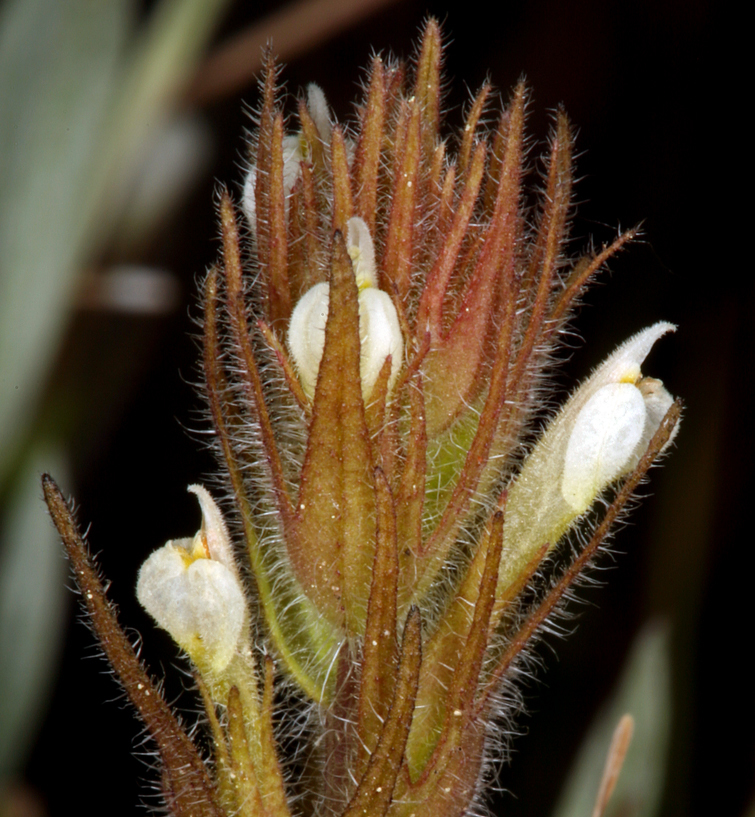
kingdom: Plantae
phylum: Tracheophyta
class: Magnoliopsida
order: Lamiales
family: Orobanchaceae
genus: Castilleja
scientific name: Castilleja tenuis
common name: Hairy indian paintbrush
